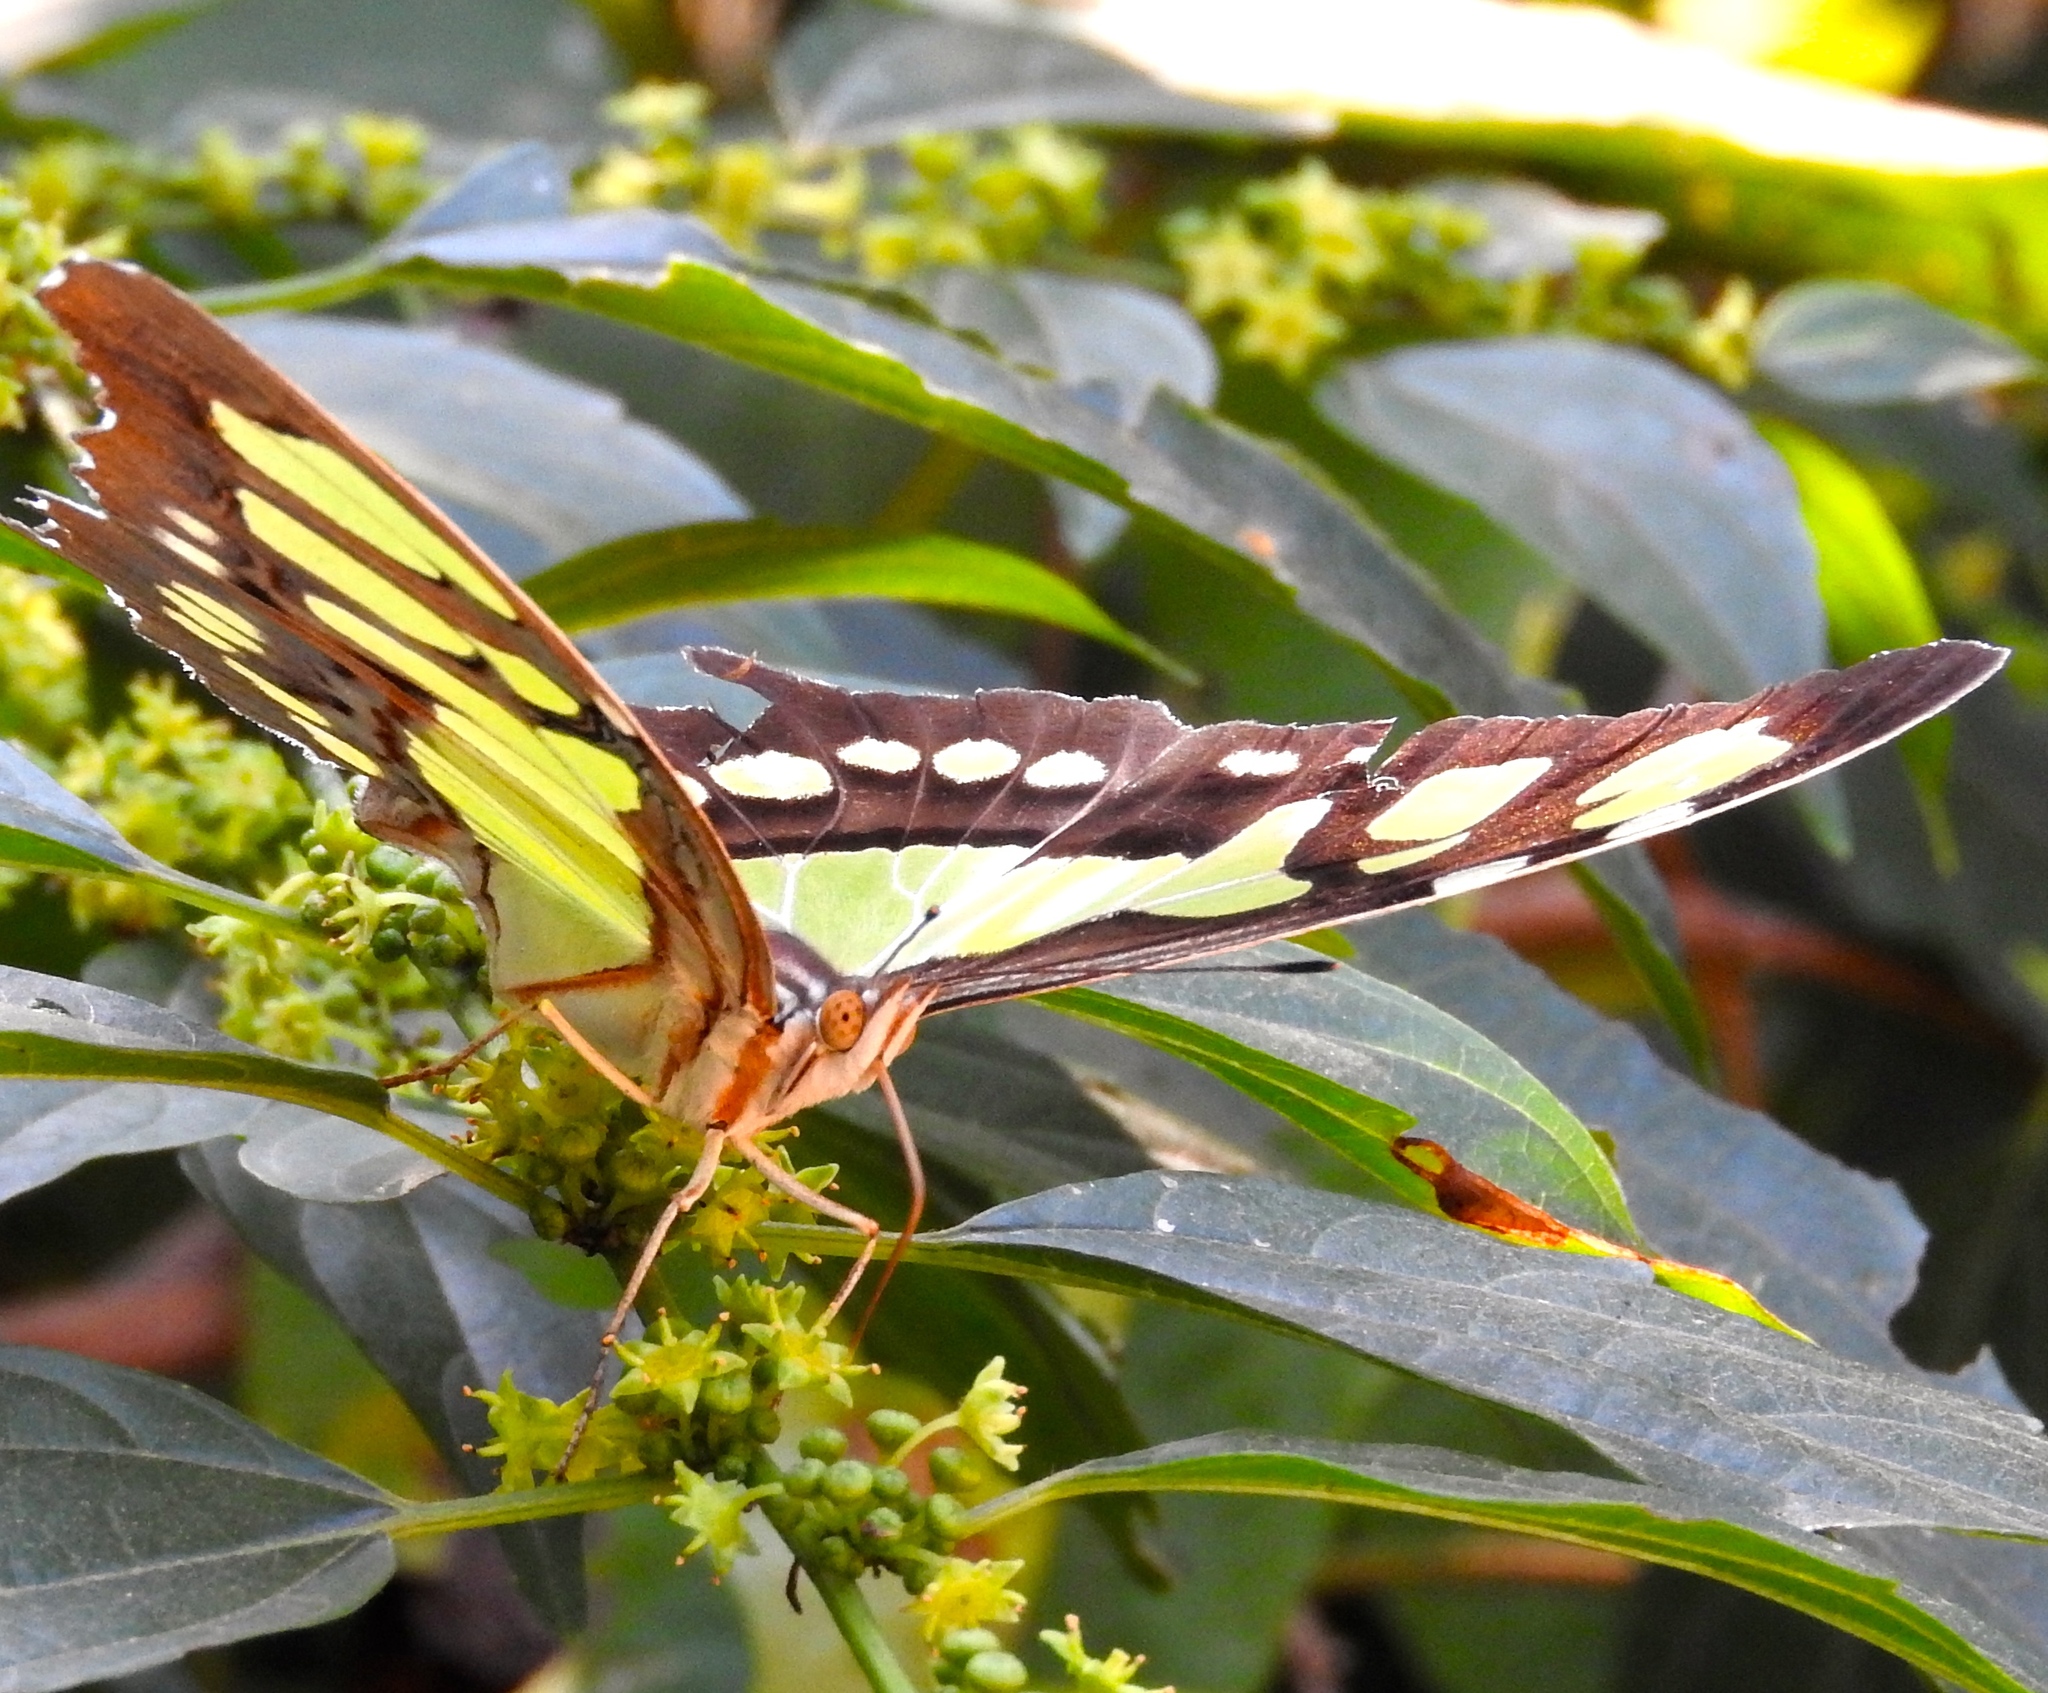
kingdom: Animalia
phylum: Arthropoda
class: Insecta
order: Lepidoptera
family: Nymphalidae
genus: Siproeta
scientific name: Siproeta stelenes
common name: Malachite
